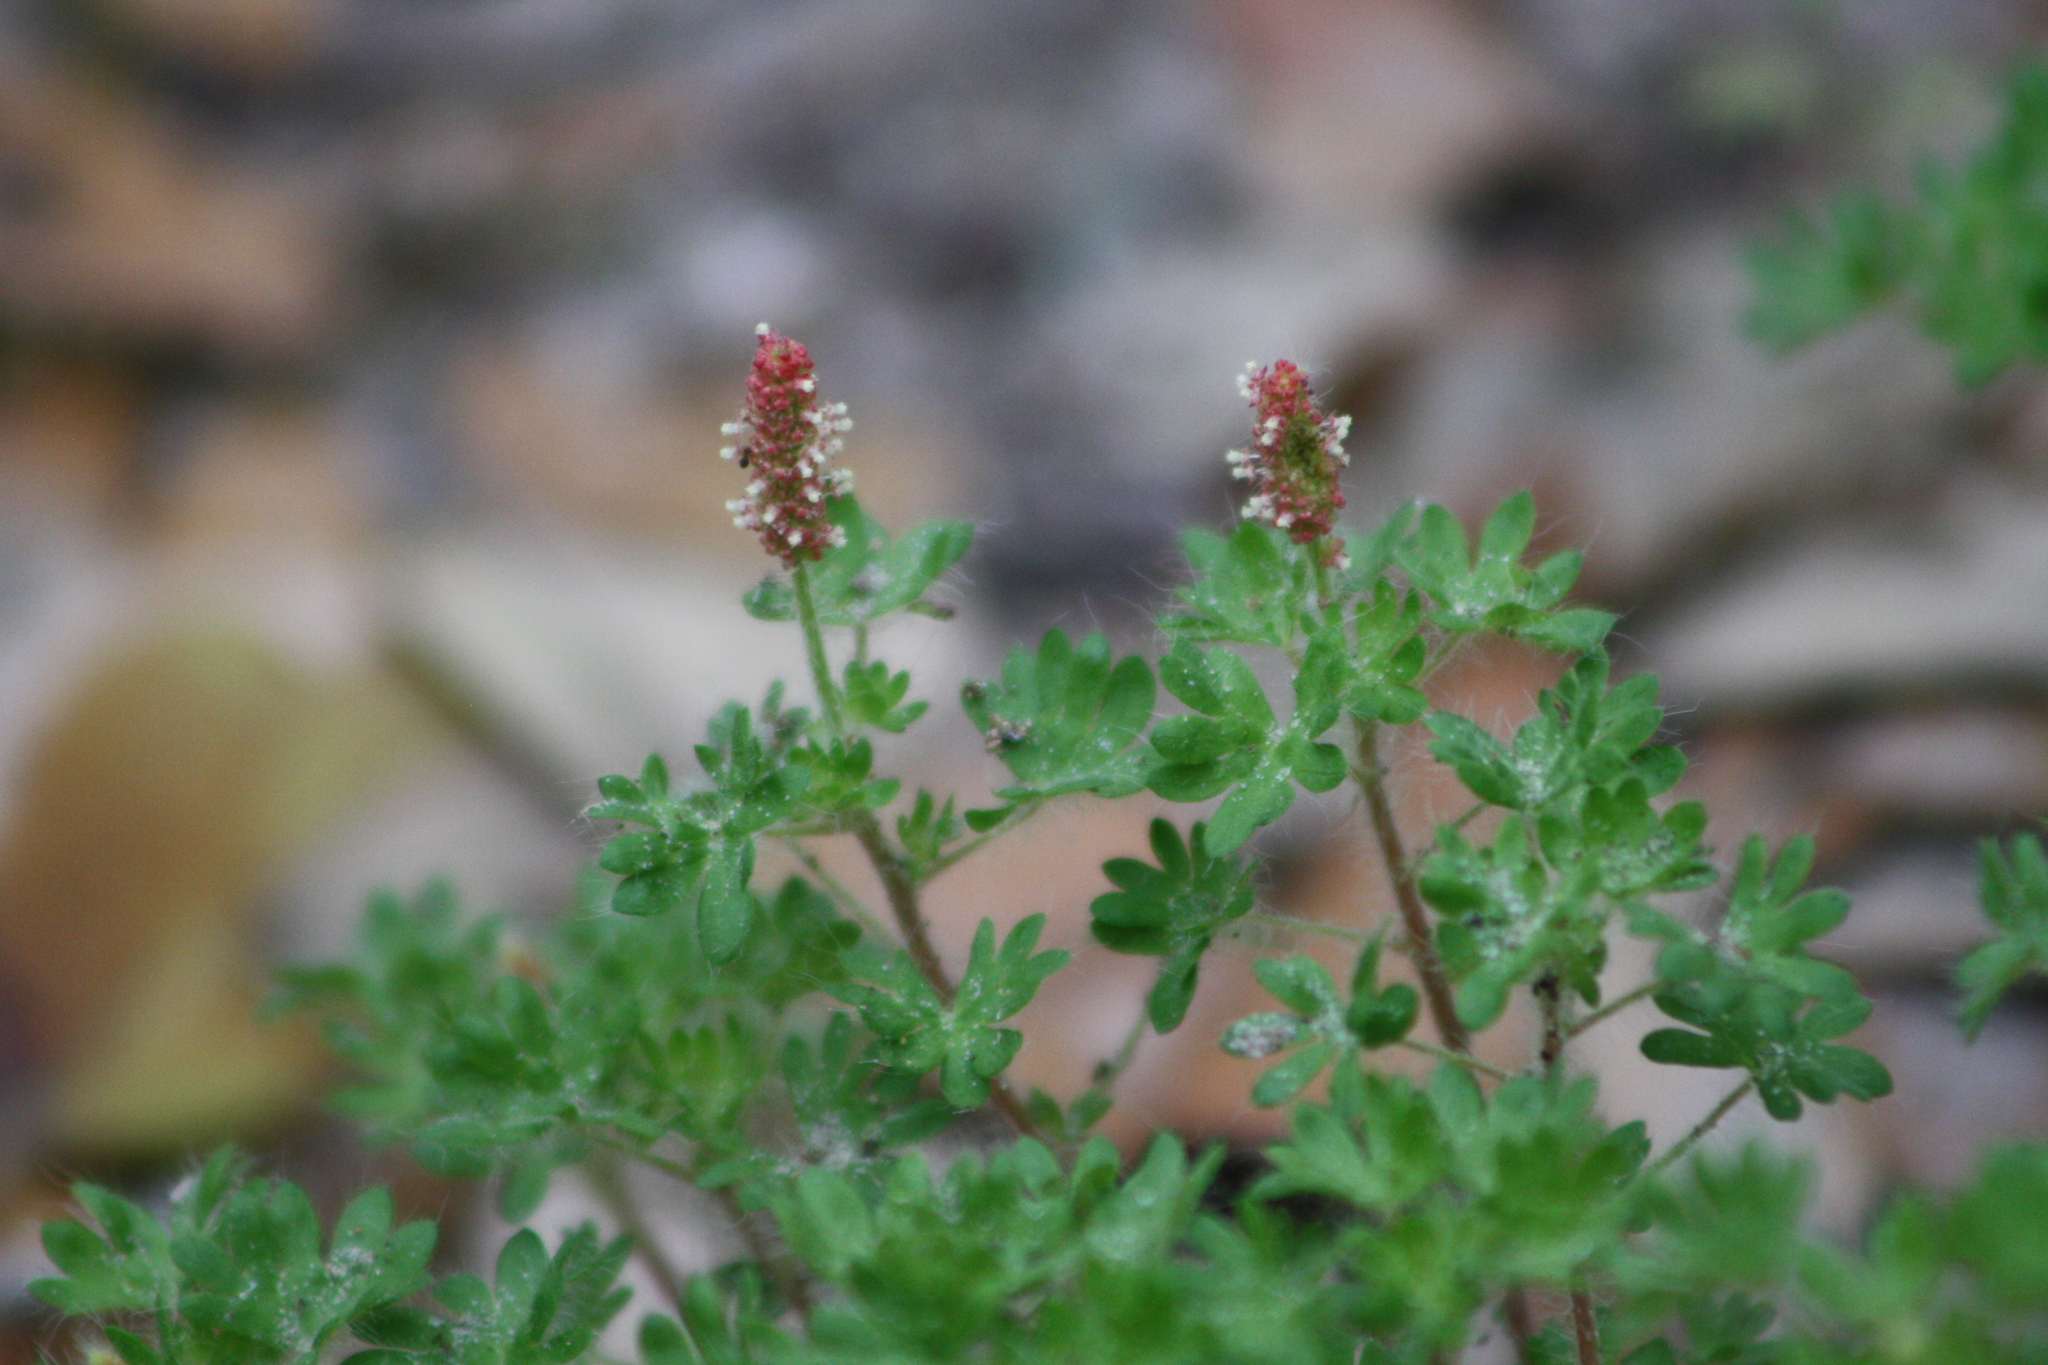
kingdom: Plantae
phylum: Tracheophyta
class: Magnoliopsida
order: Malpighiales
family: Euphorbiaceae
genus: Acalypha
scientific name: Acalypha radians
